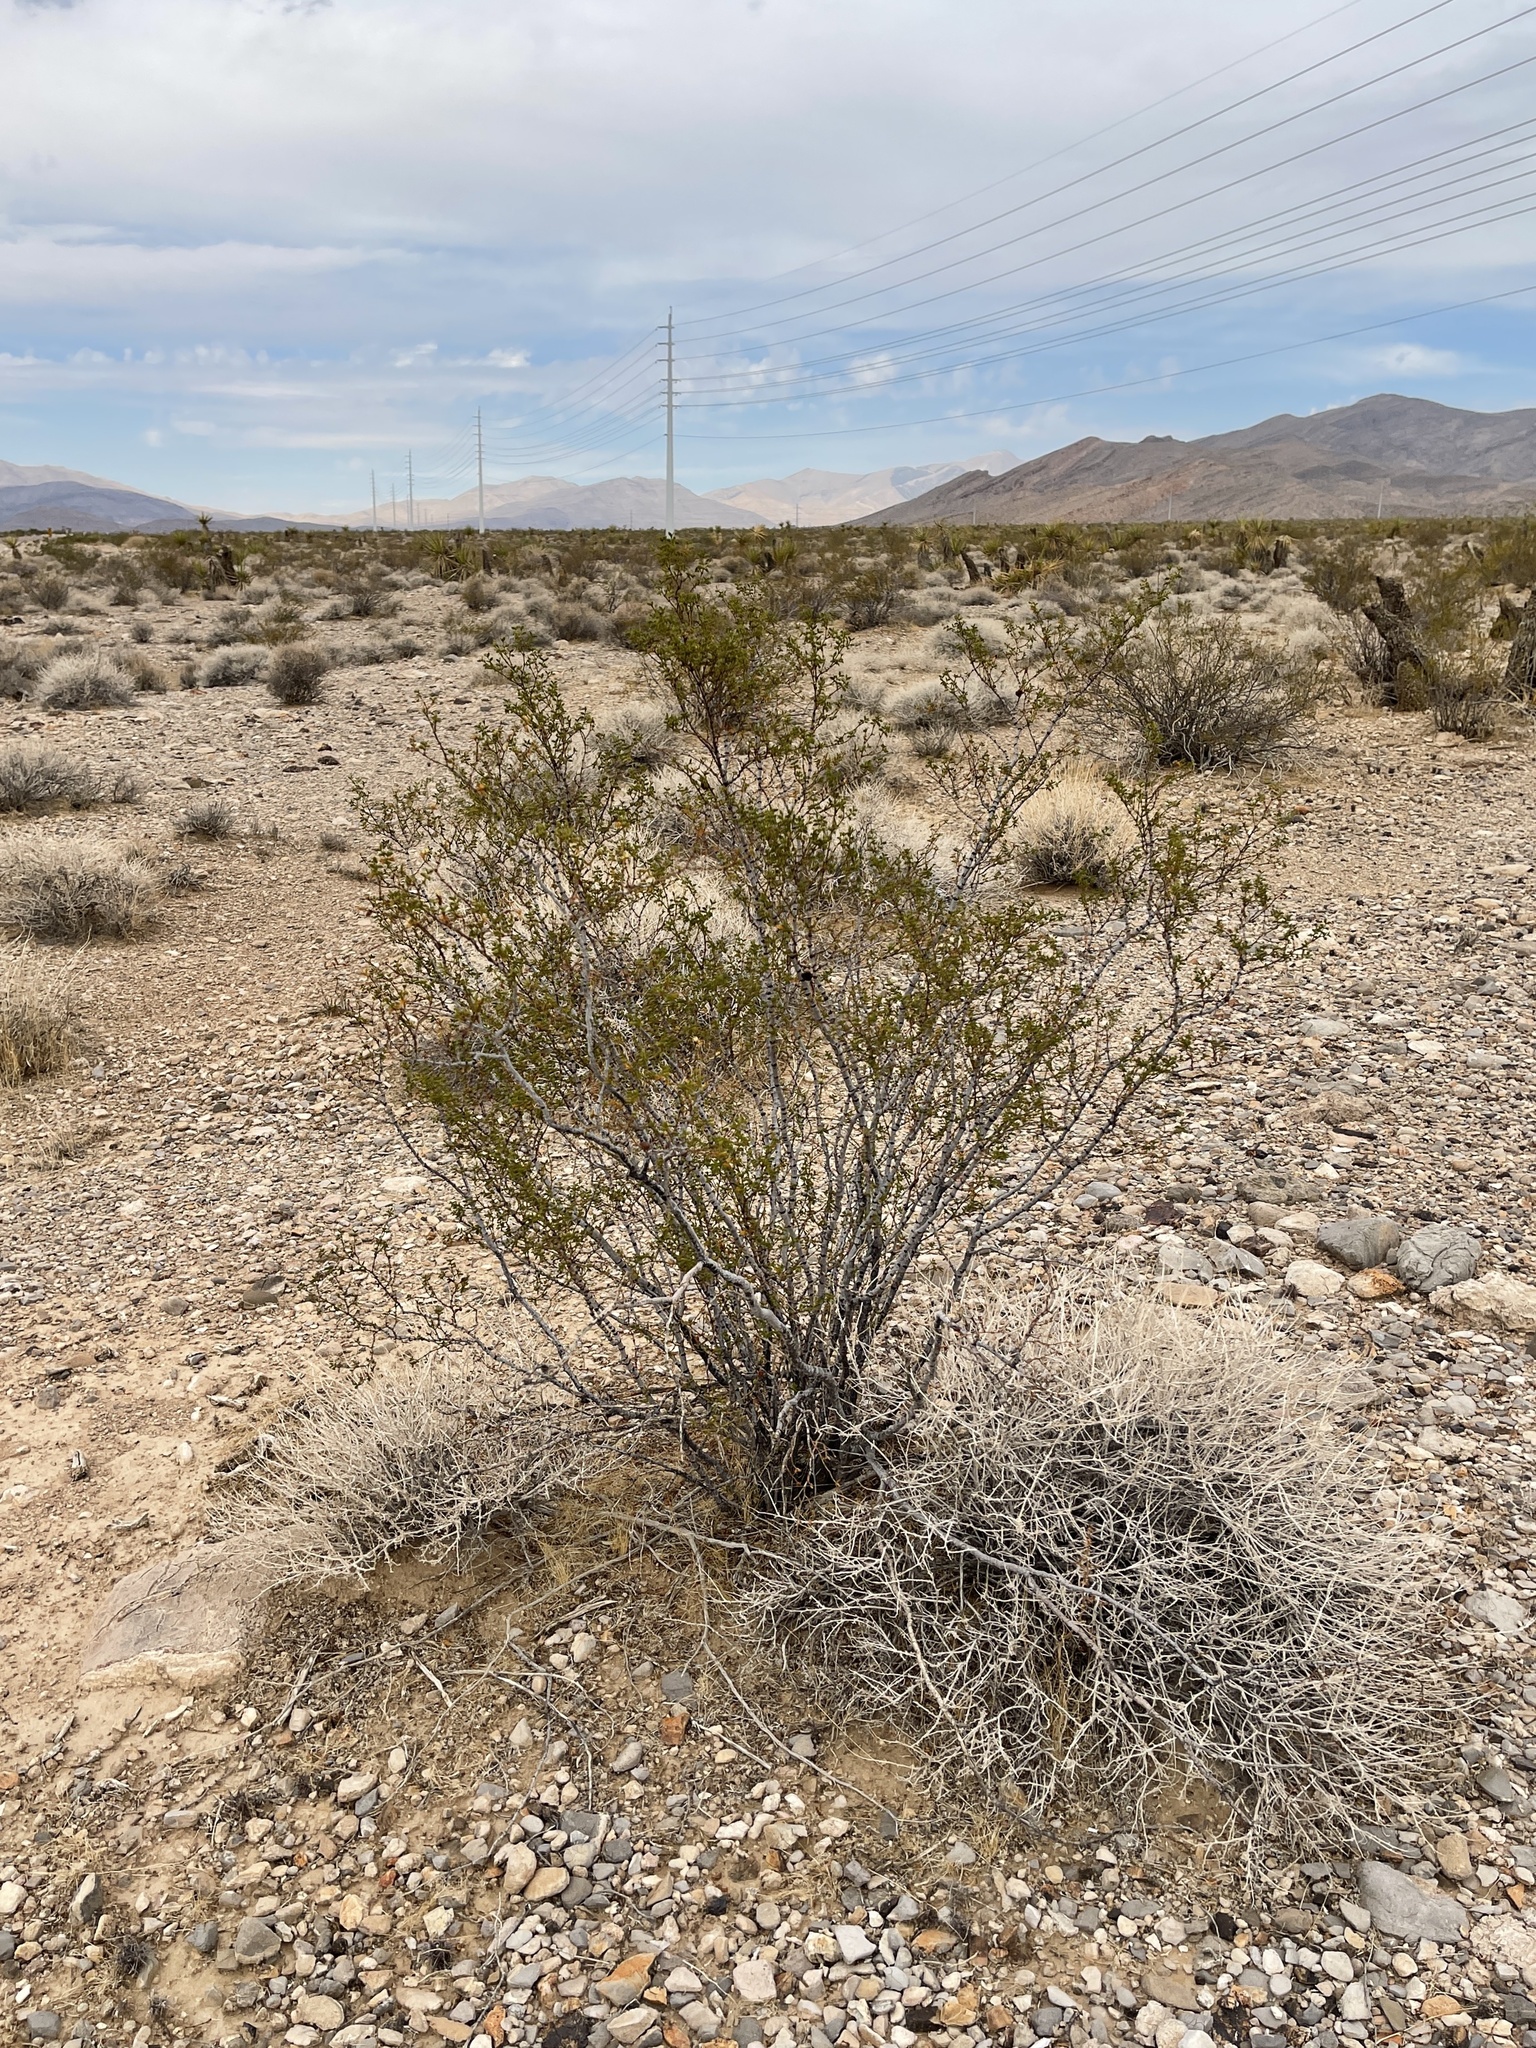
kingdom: Plantae
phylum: Tracheophyta
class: Magnoliopsida
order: Zygophyllales
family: Zygophyllaceae
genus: Larrea
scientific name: Larrea tridentata
